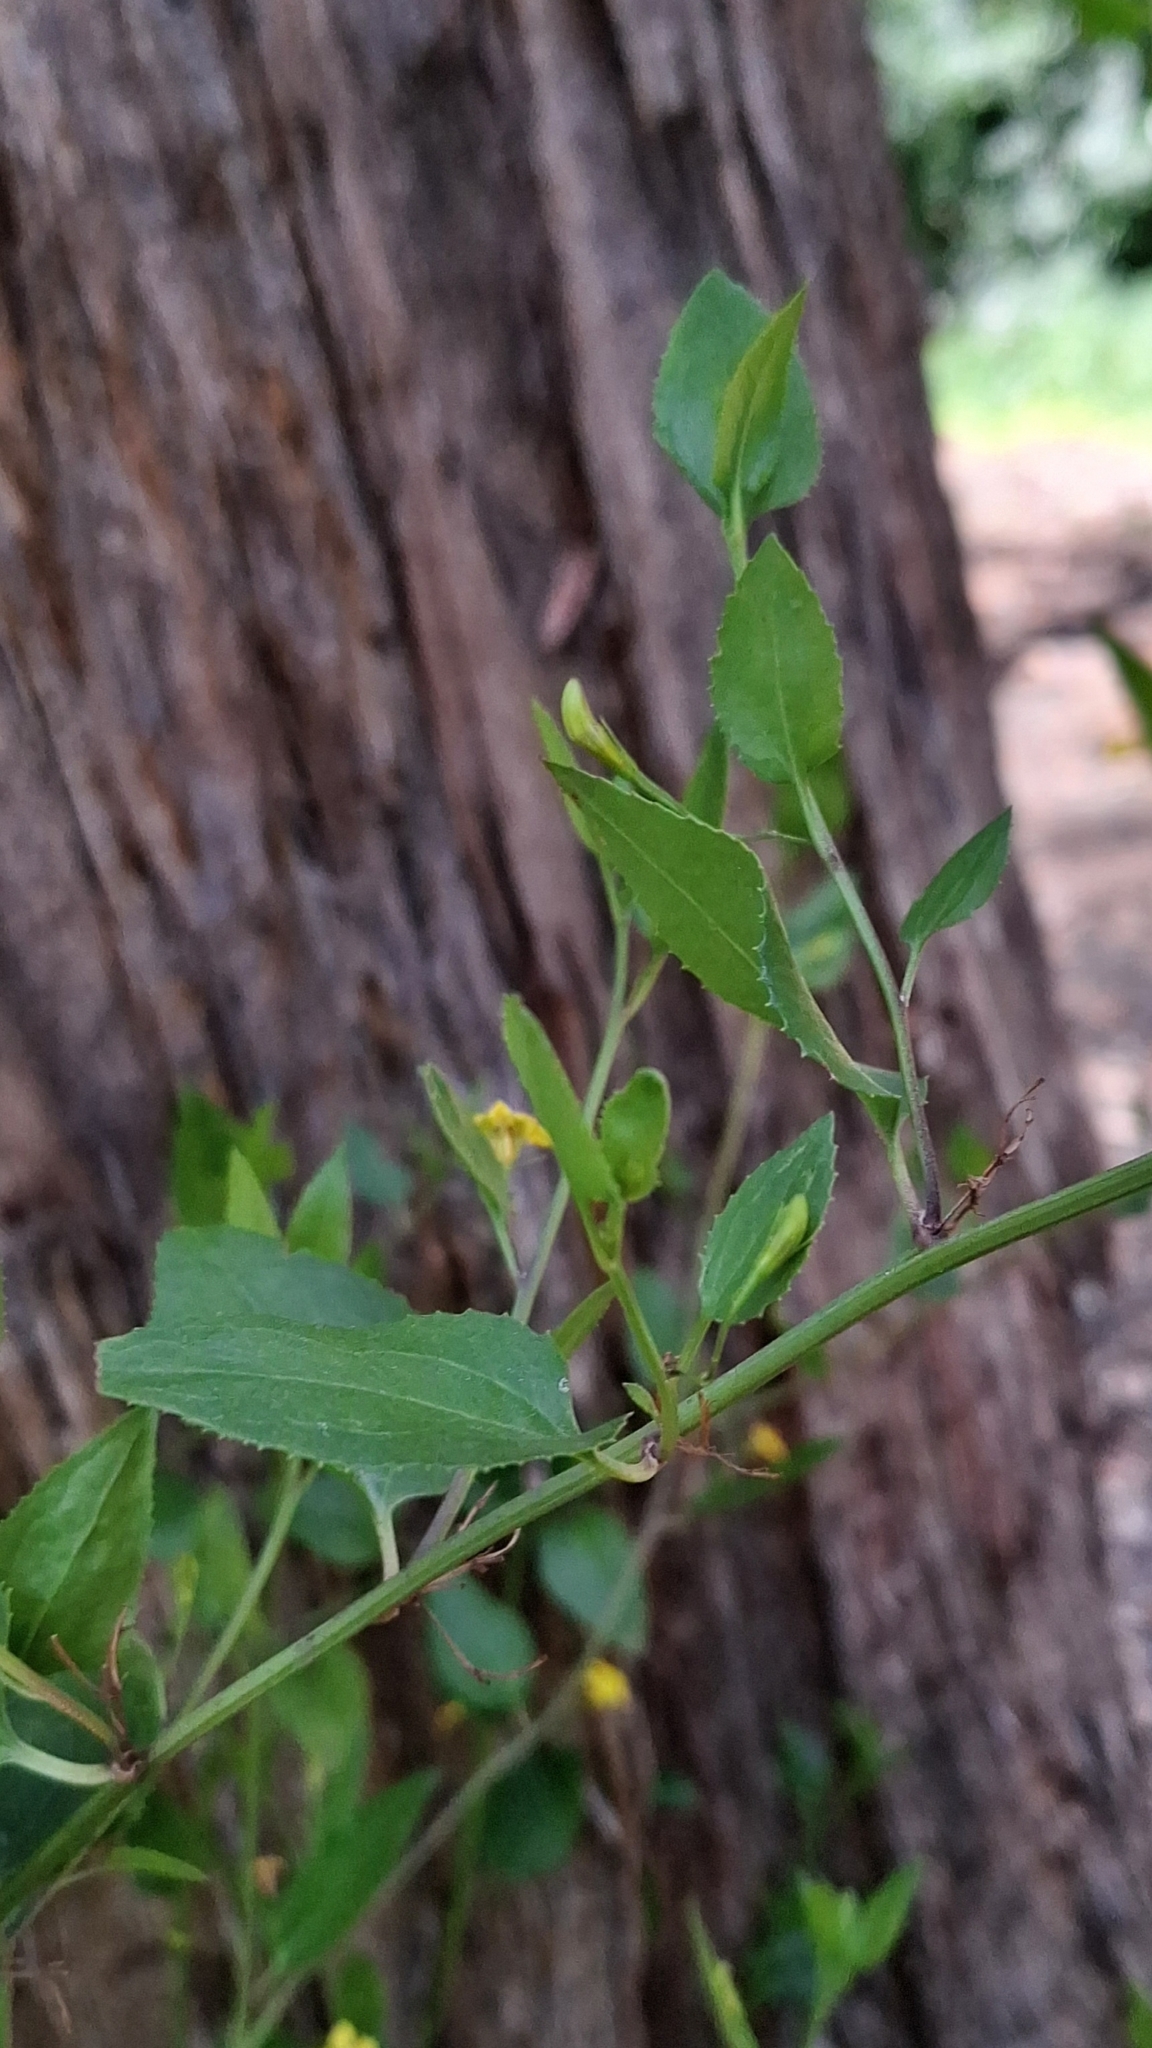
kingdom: Plantae
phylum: Tracheophyta
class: Magnoliopsida
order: Asterales
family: Goodeniaceae
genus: Goodenia
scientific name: Goodenia ovata
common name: Hop goodenia
